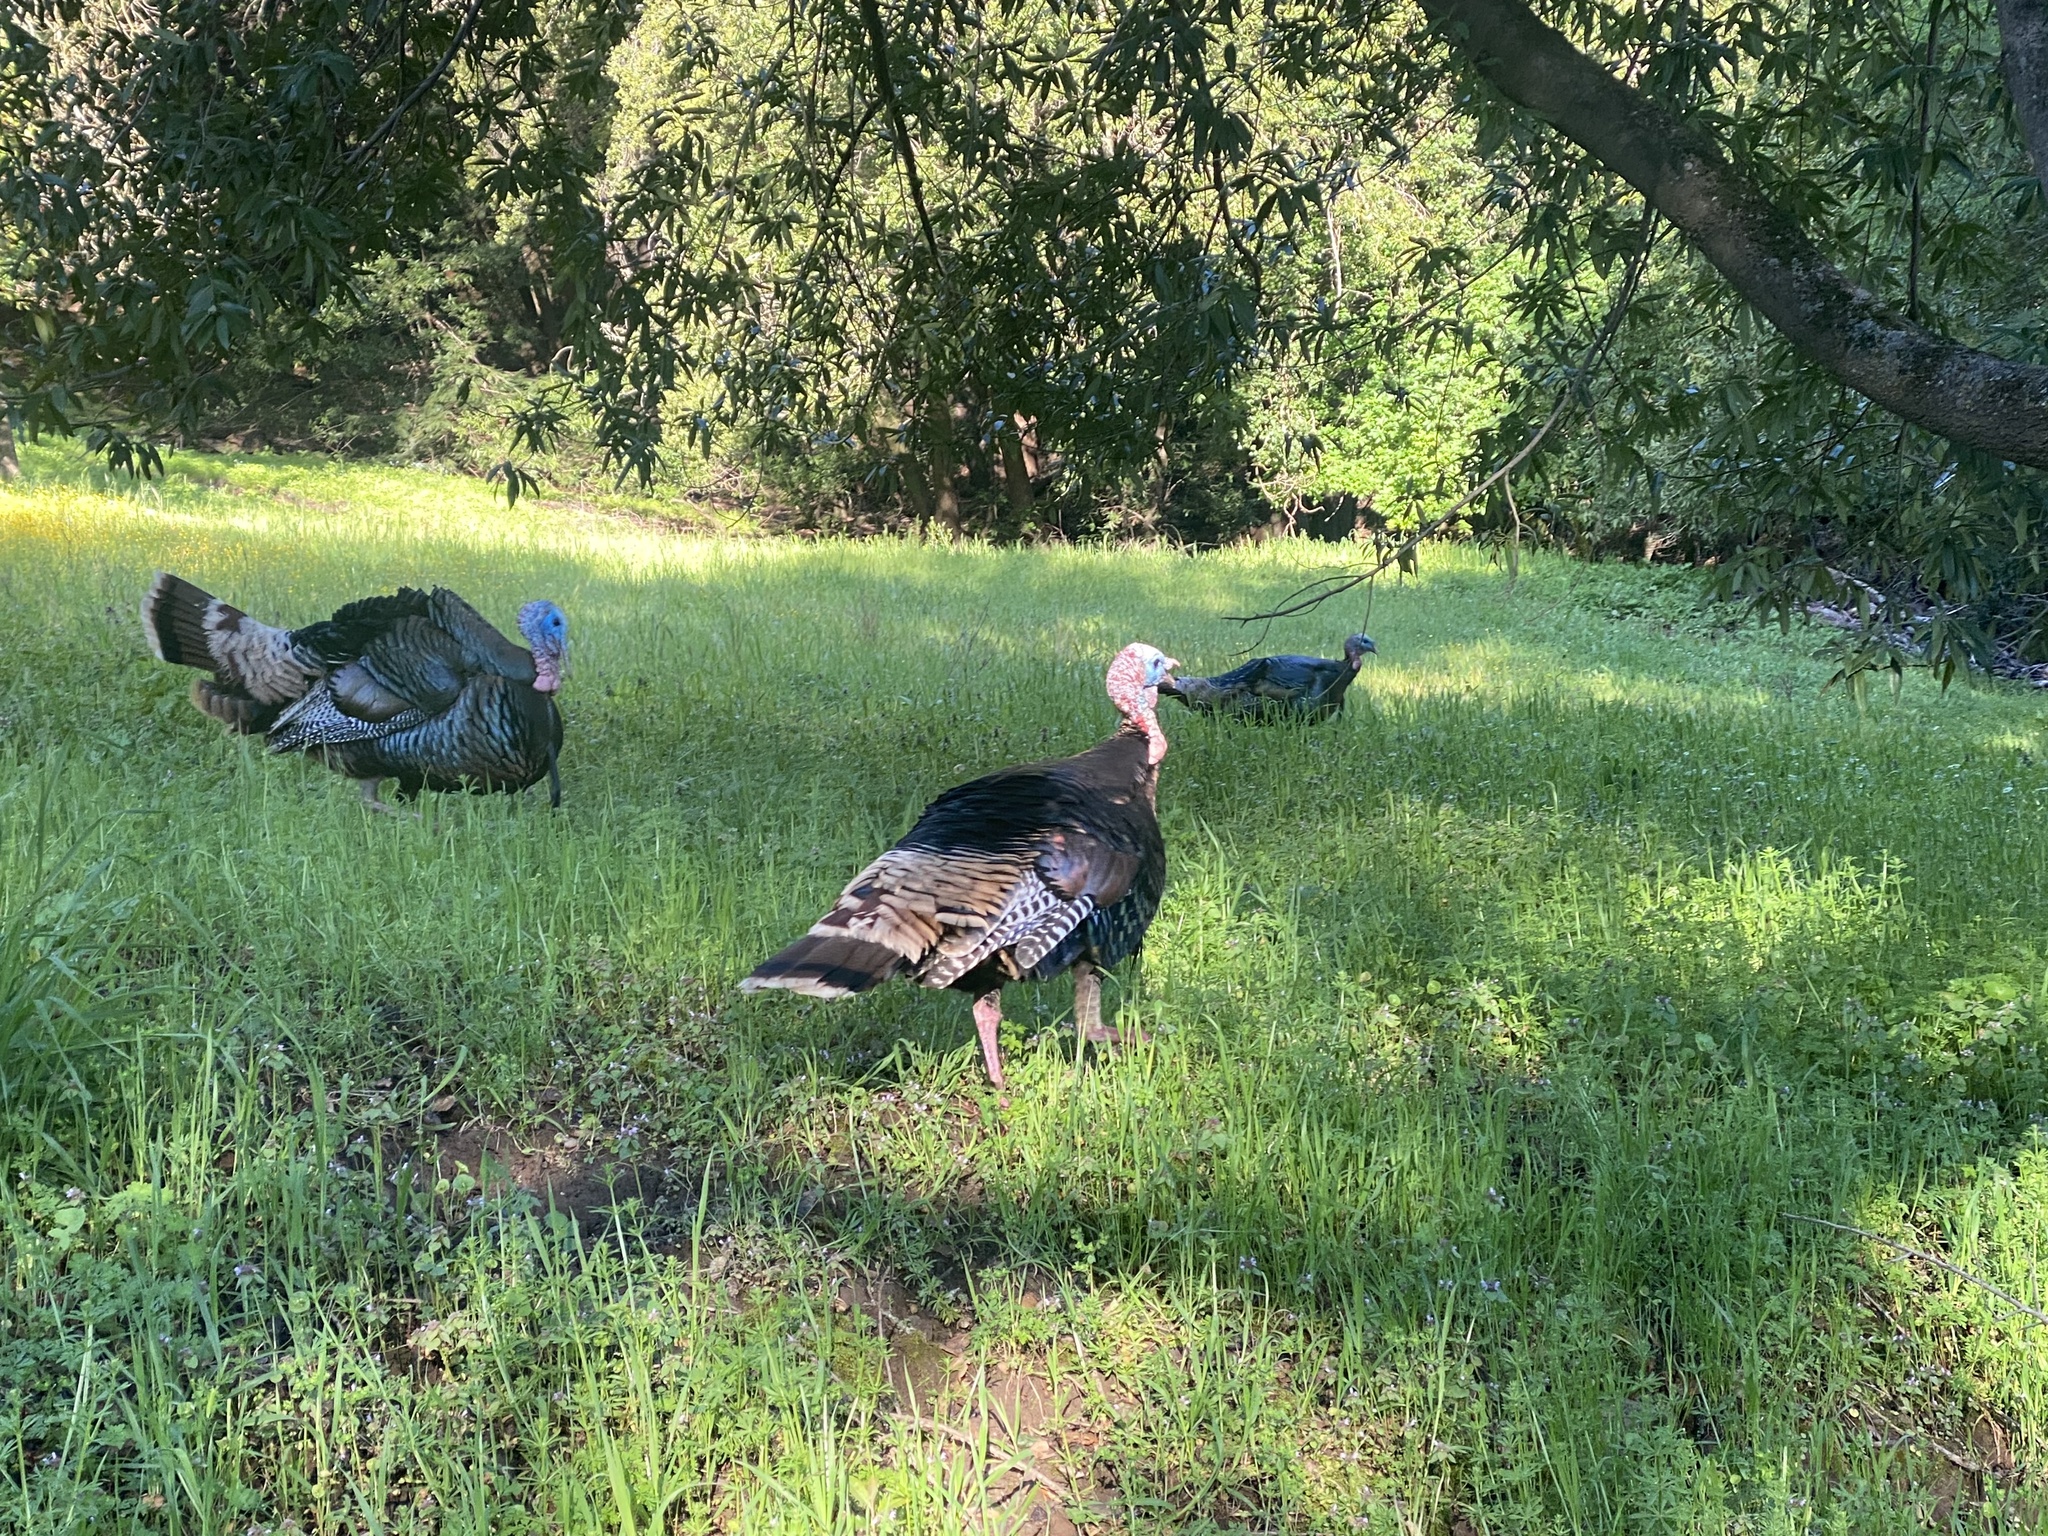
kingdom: Animalia
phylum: Chordata
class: Aves
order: Galliformes
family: Phasianidae
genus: Meleagris
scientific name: Meleagris gallopavo
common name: Wild turkey
